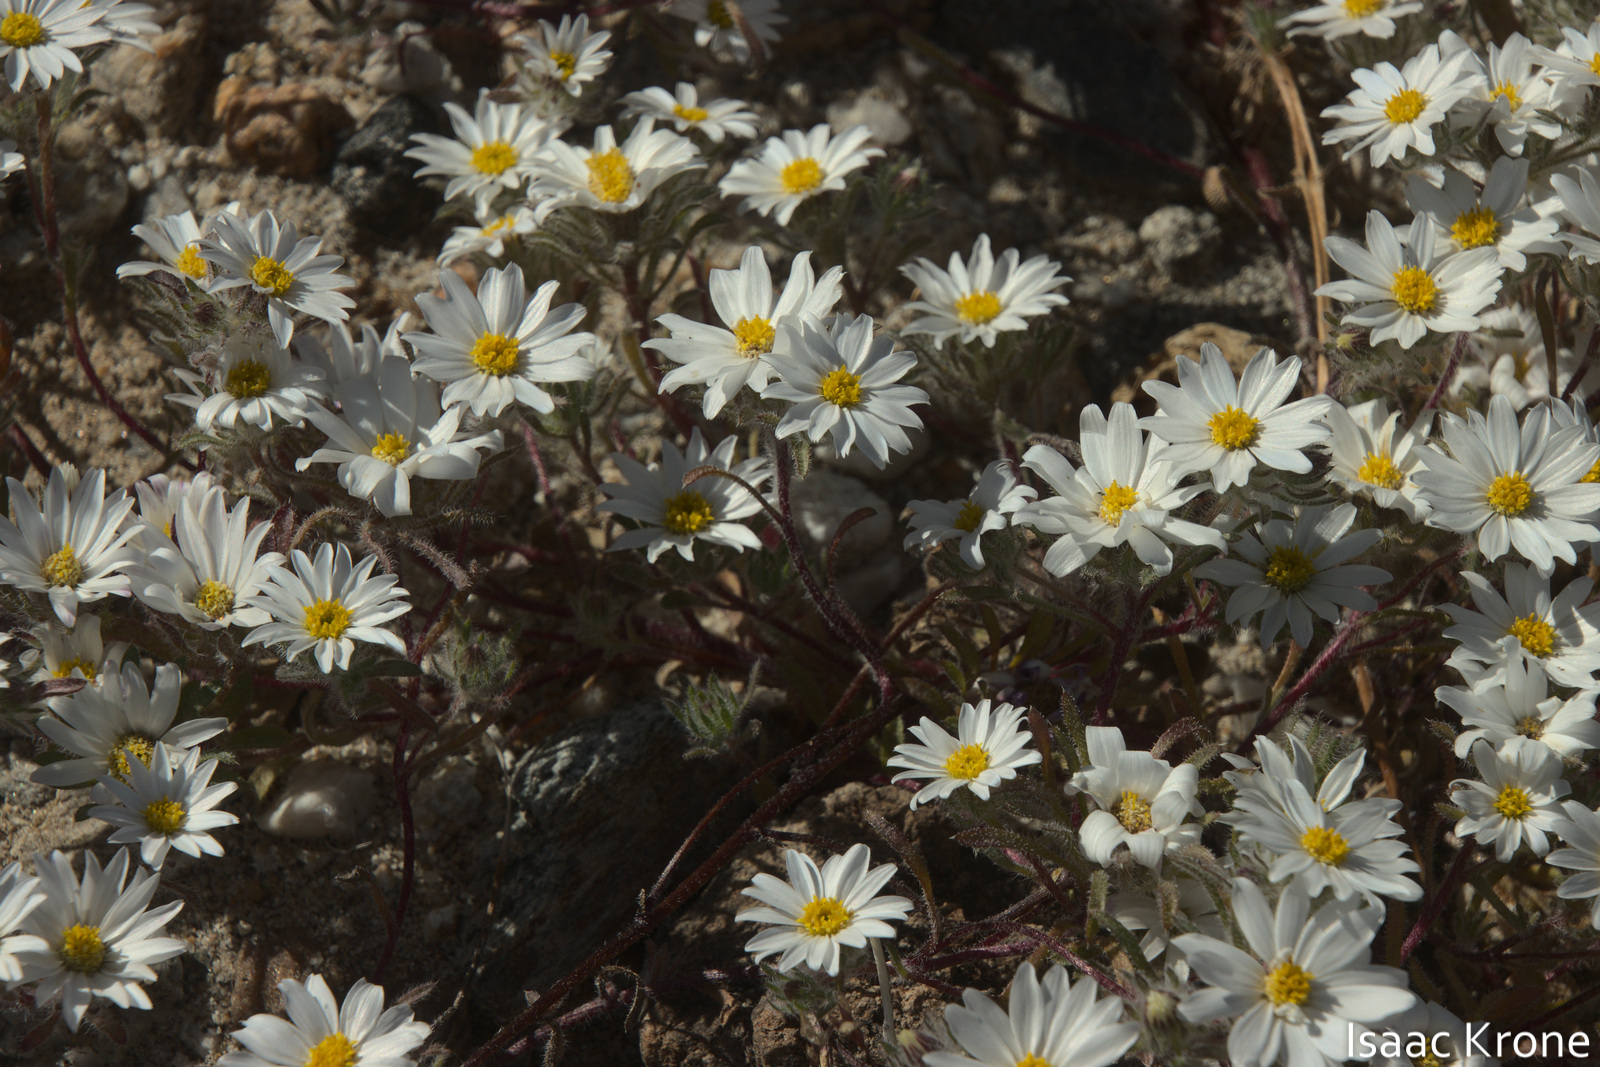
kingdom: Plantae
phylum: Tracheophyta
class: Magnoliopsida
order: Asterales
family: Asteraceae
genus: Monoptilon
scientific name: Monoptilon bellioides
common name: Bristly desertstar
